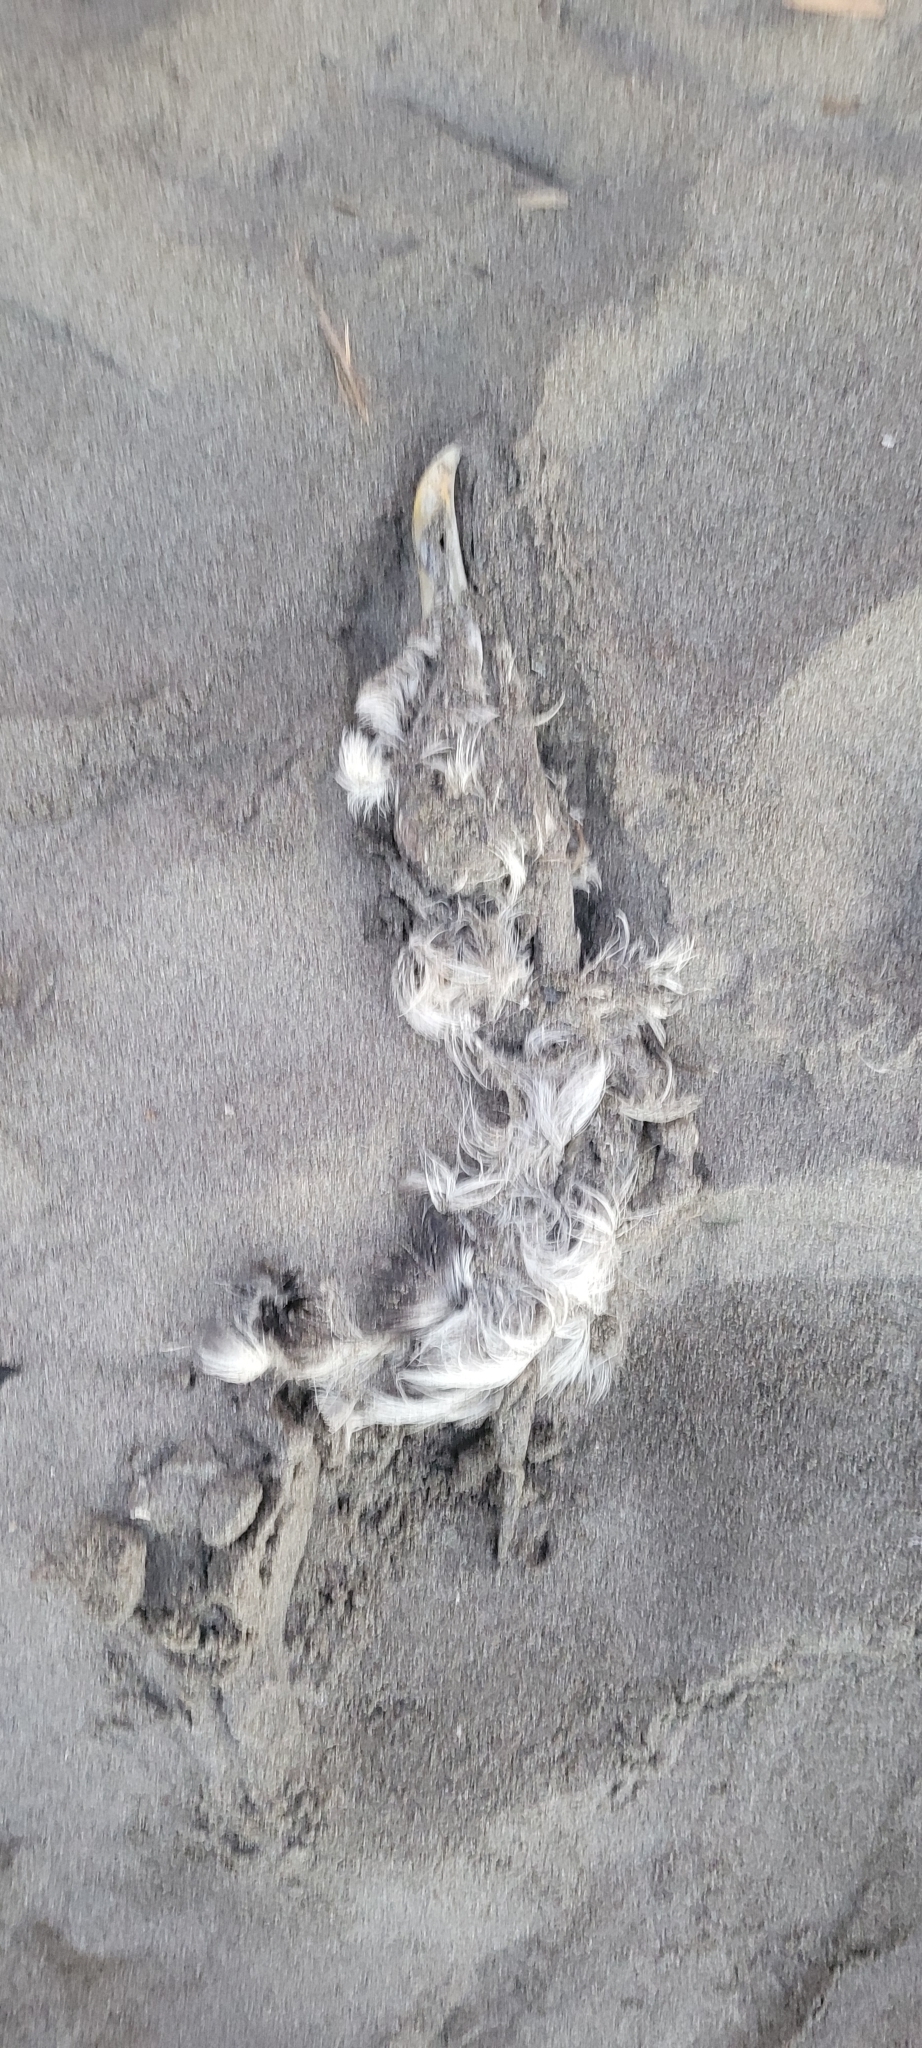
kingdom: Animalia
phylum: Chordata
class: Aves
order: Charadriiformes
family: Laridae
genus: Larus
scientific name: Larus dominicanus
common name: Kelp gull
